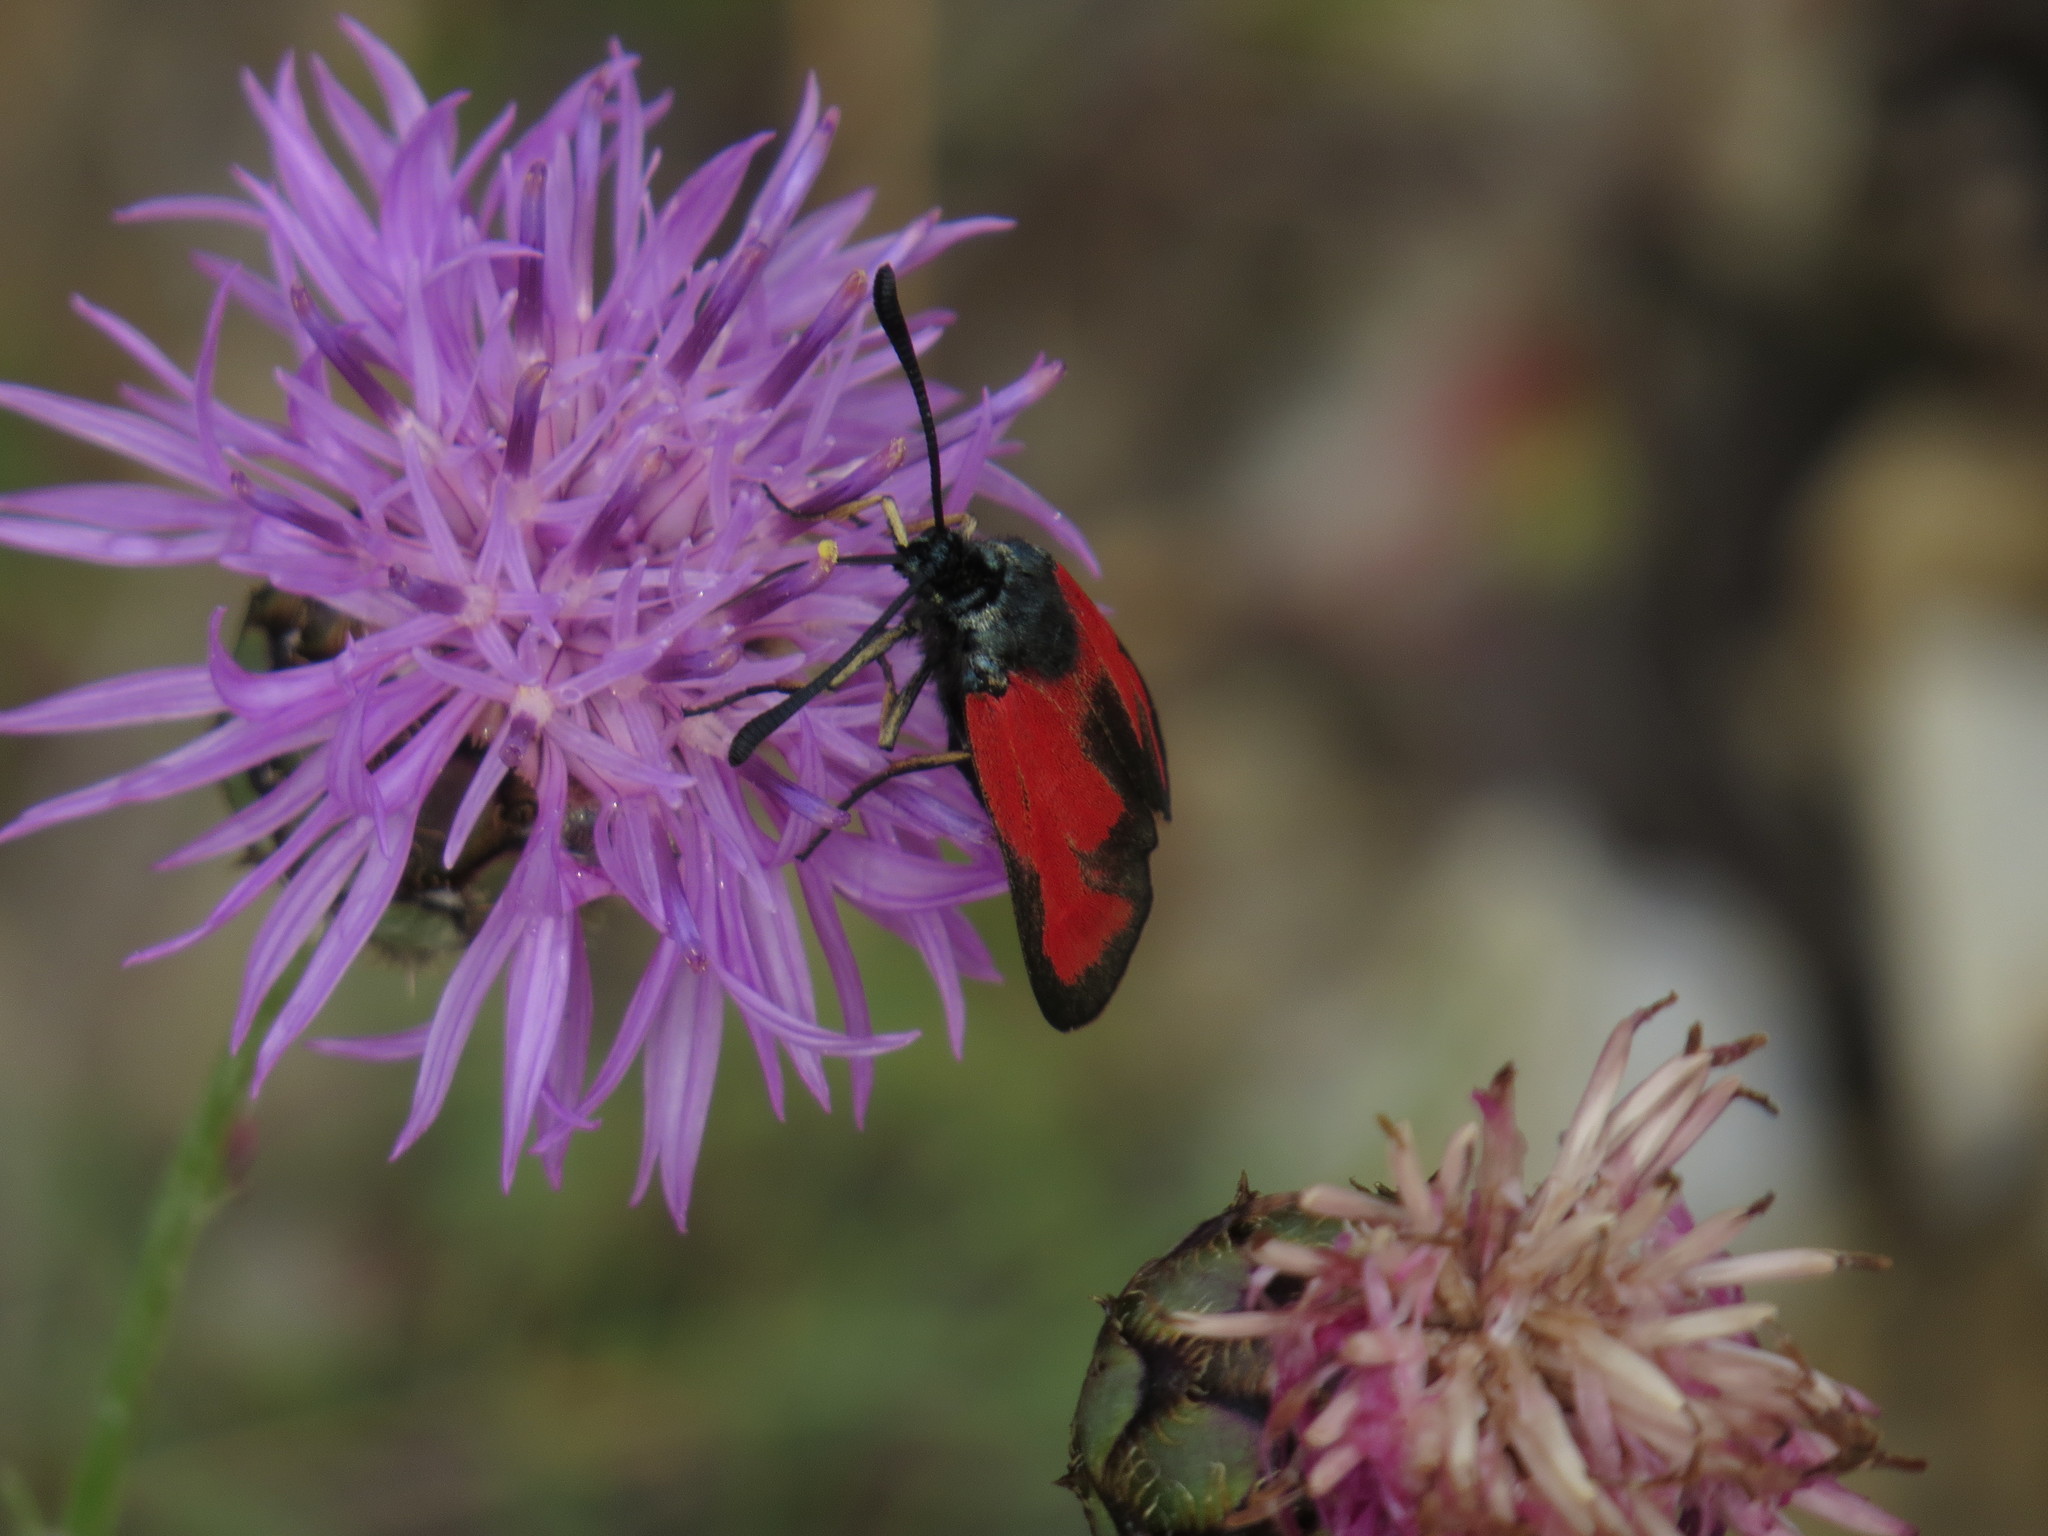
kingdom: Animalia
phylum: Arthropoda
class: Insecta
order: Lepidoptera
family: Zygaenidae
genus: Zygaena
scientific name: Zygaena erythrus
